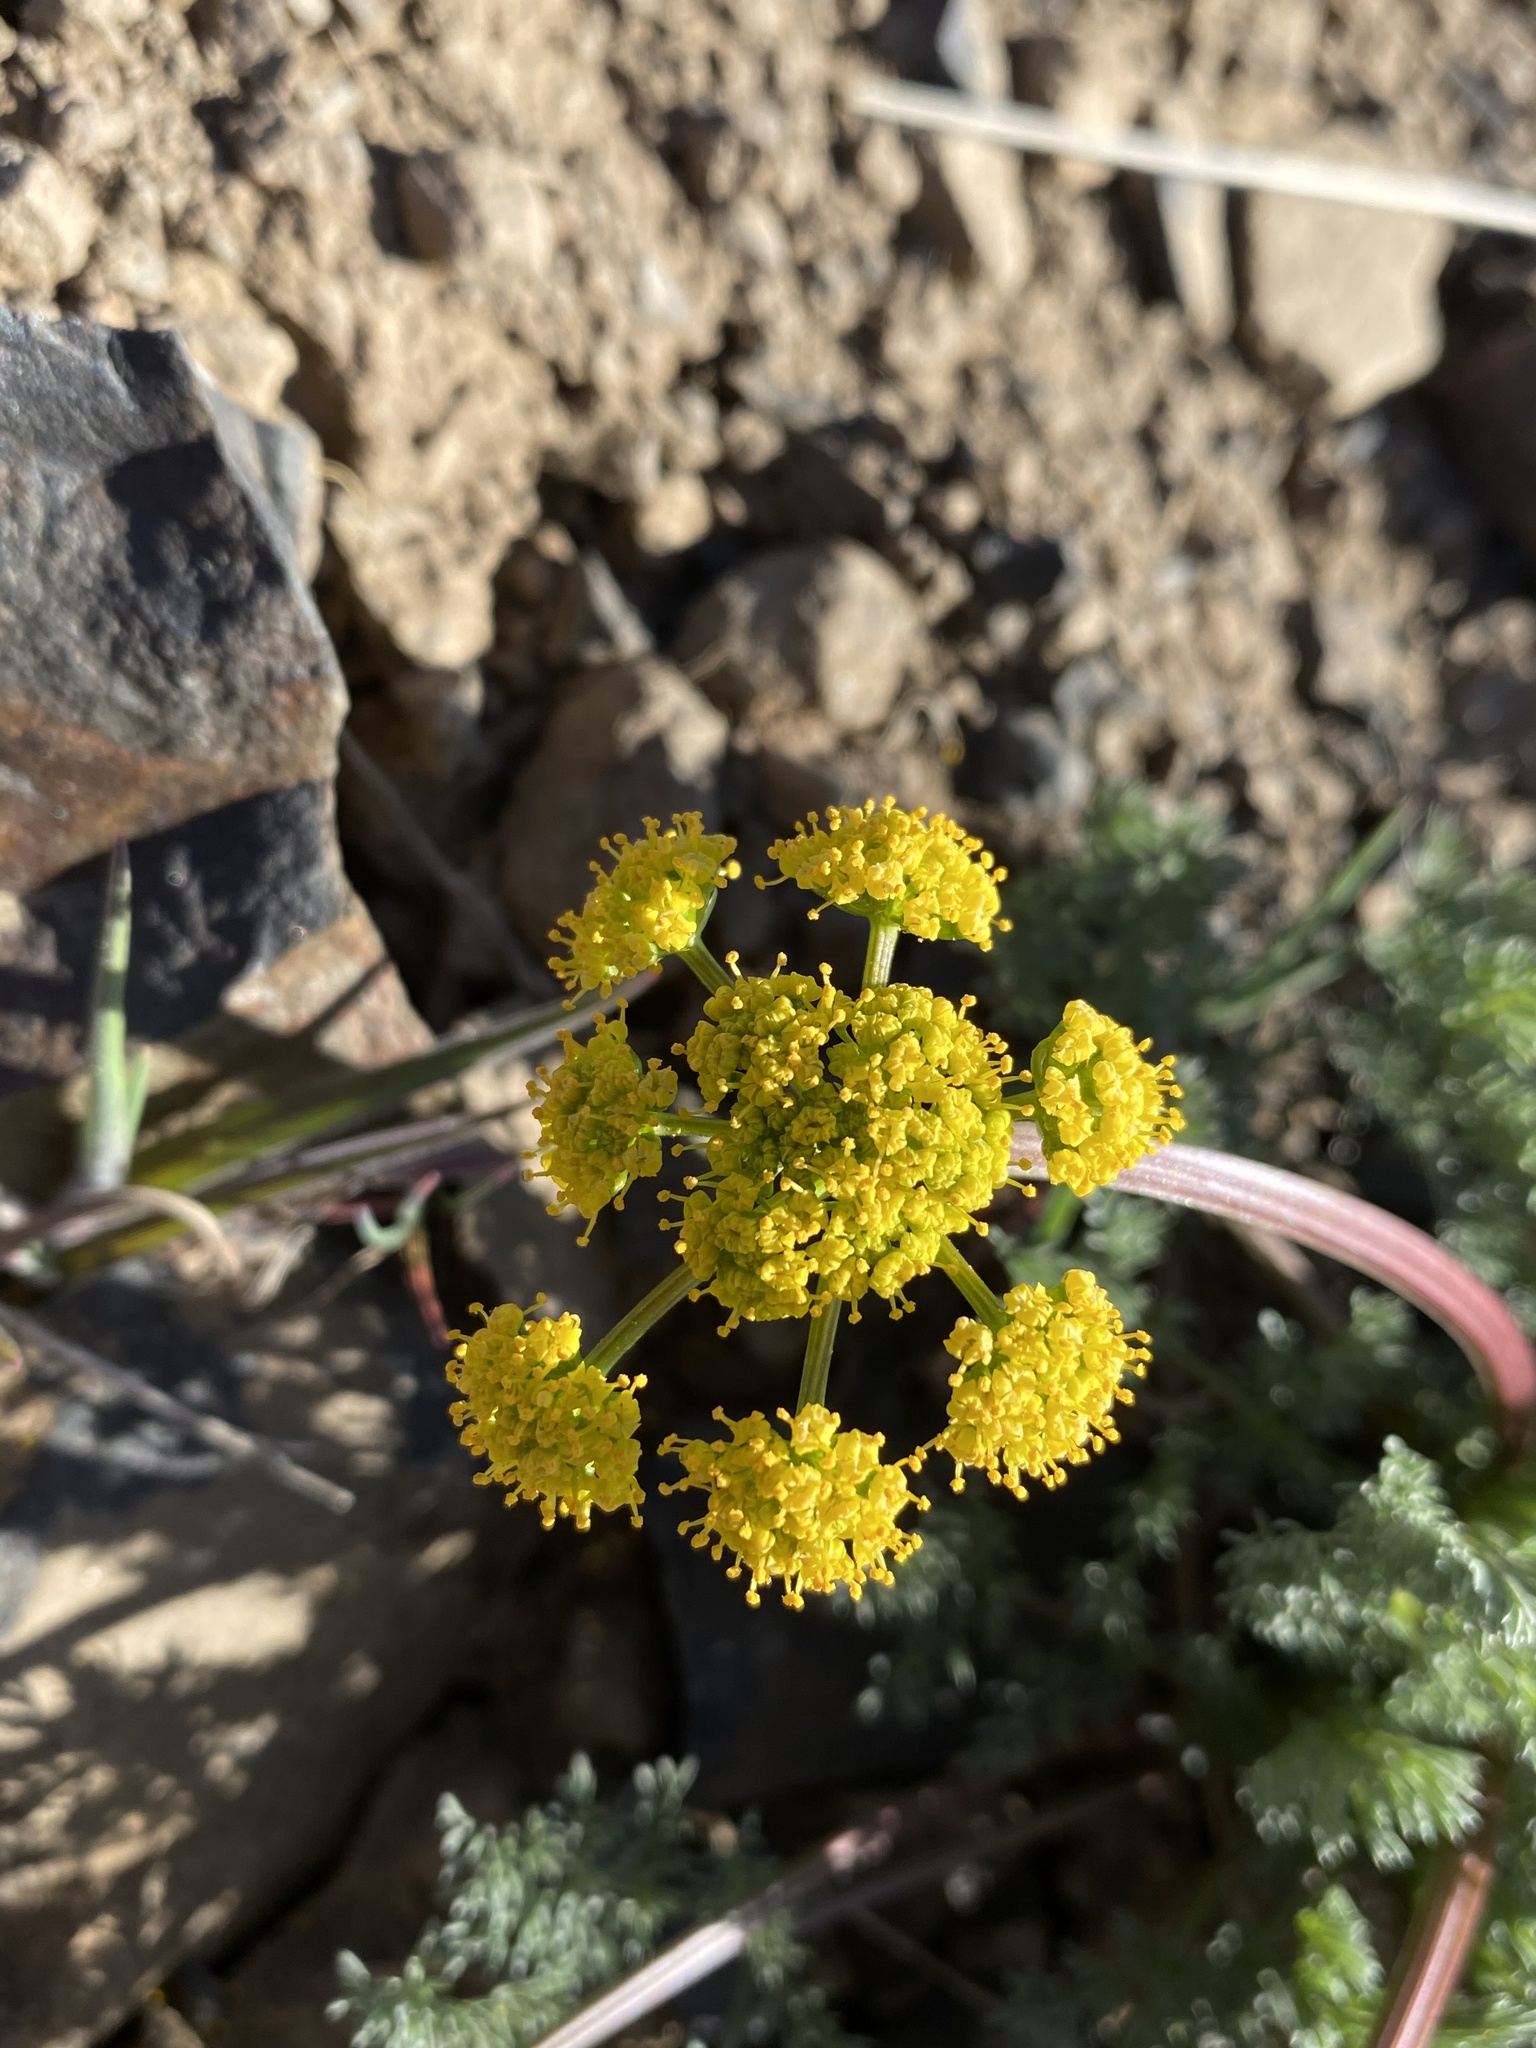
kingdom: Plantae
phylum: Tracheophyta
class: Magnoliopsida
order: Apiales
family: Apiaceae
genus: Lomatium
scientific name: Lomatium quintuplex
